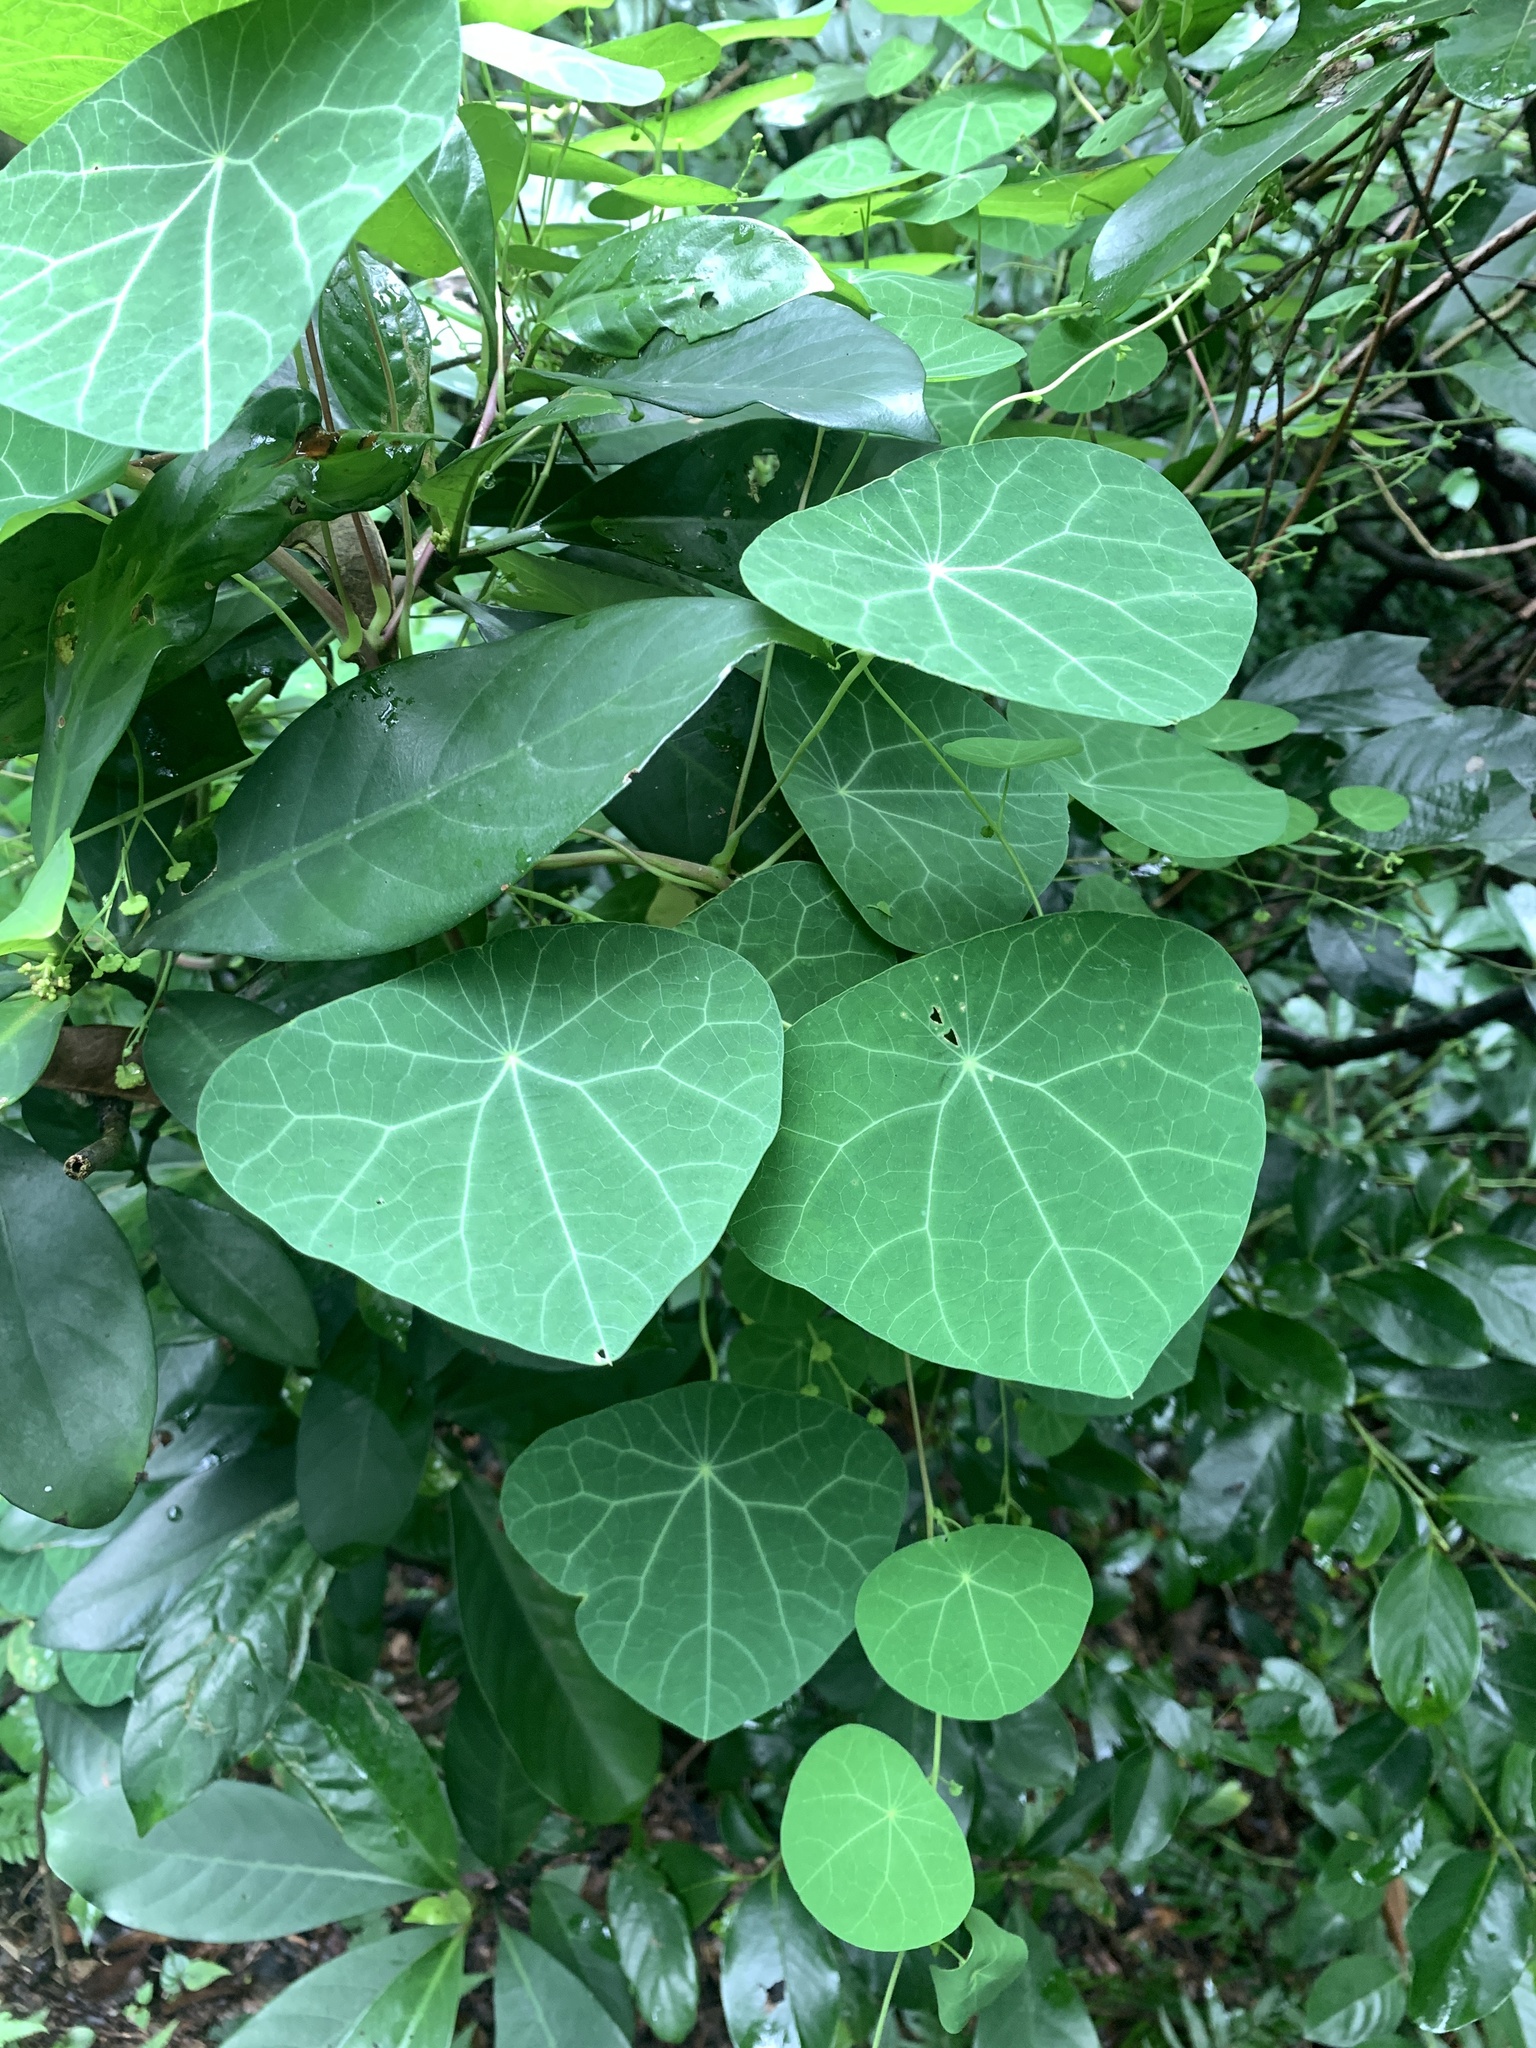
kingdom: Plantae
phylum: Tracheophyta
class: Magnoliopsida
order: Ranunculales
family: Menispermaceae
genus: Stephania
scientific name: Stephania cephalantha
